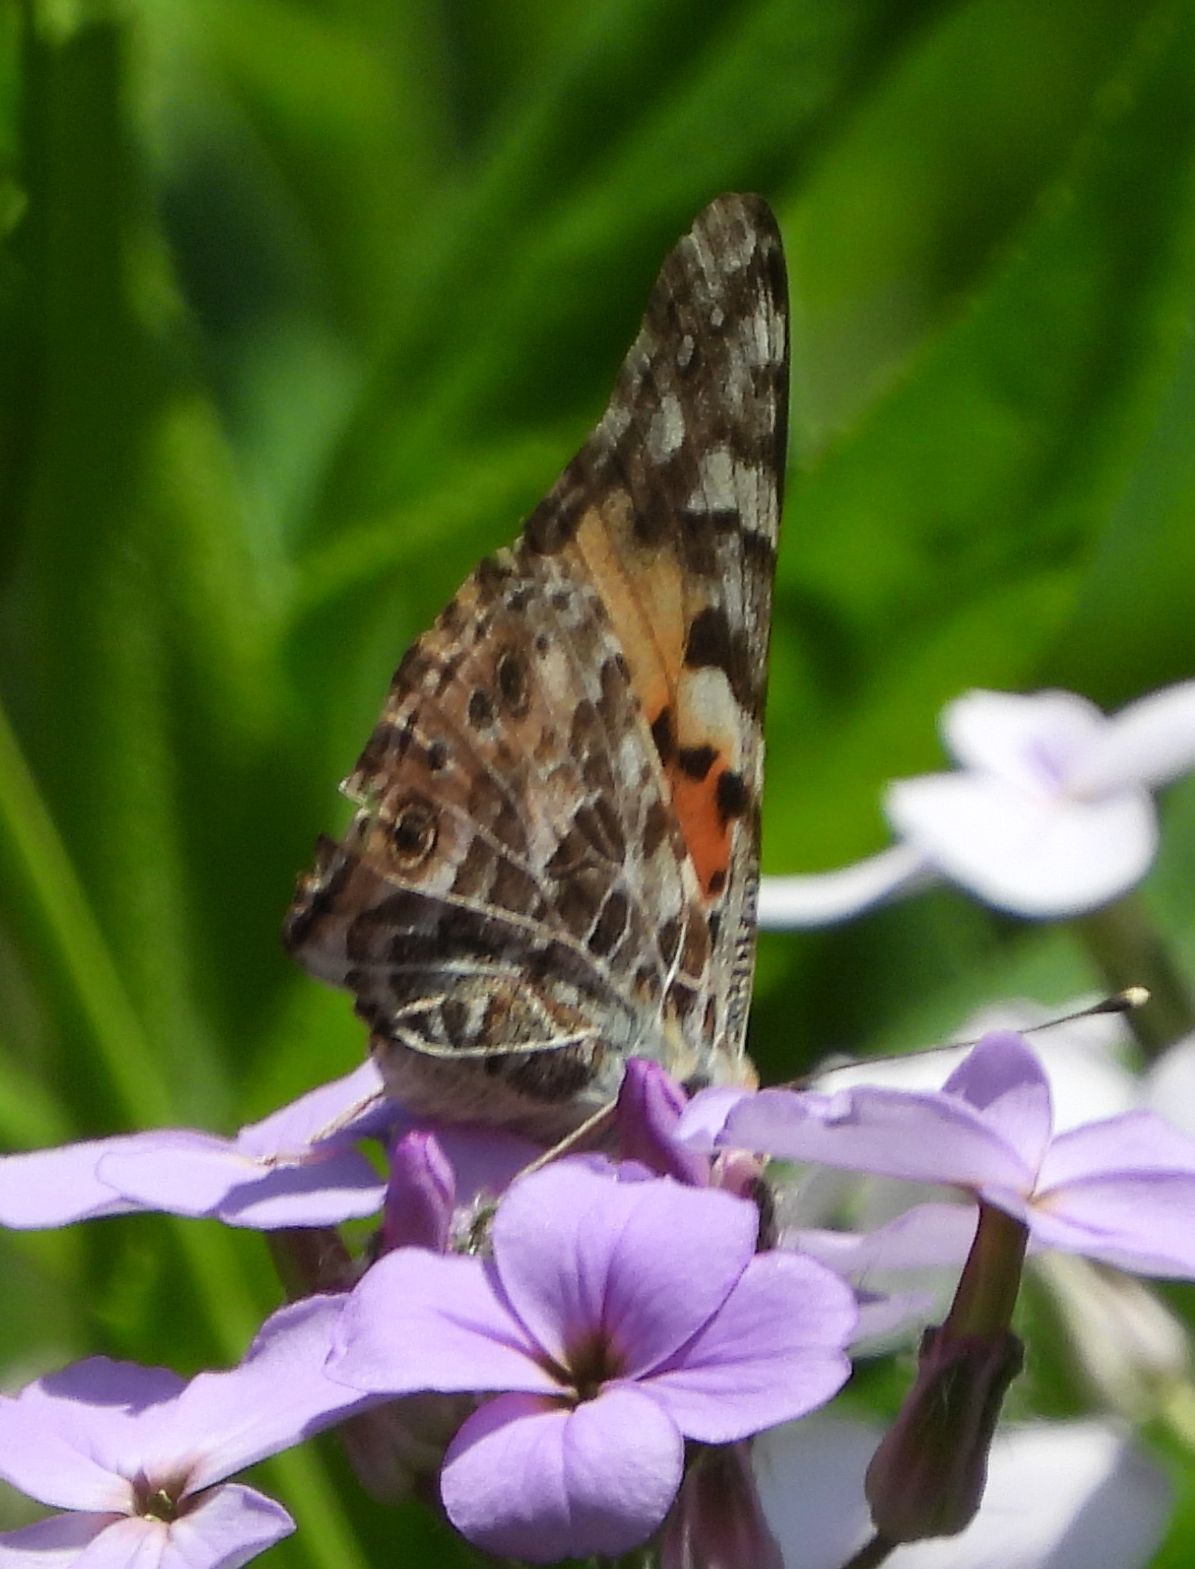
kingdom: Animalia
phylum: Arthropoda
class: Insecta
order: Lepidoptera
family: Nymphalidae
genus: Vanessa
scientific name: Vanessa cardui
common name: Painted lady
